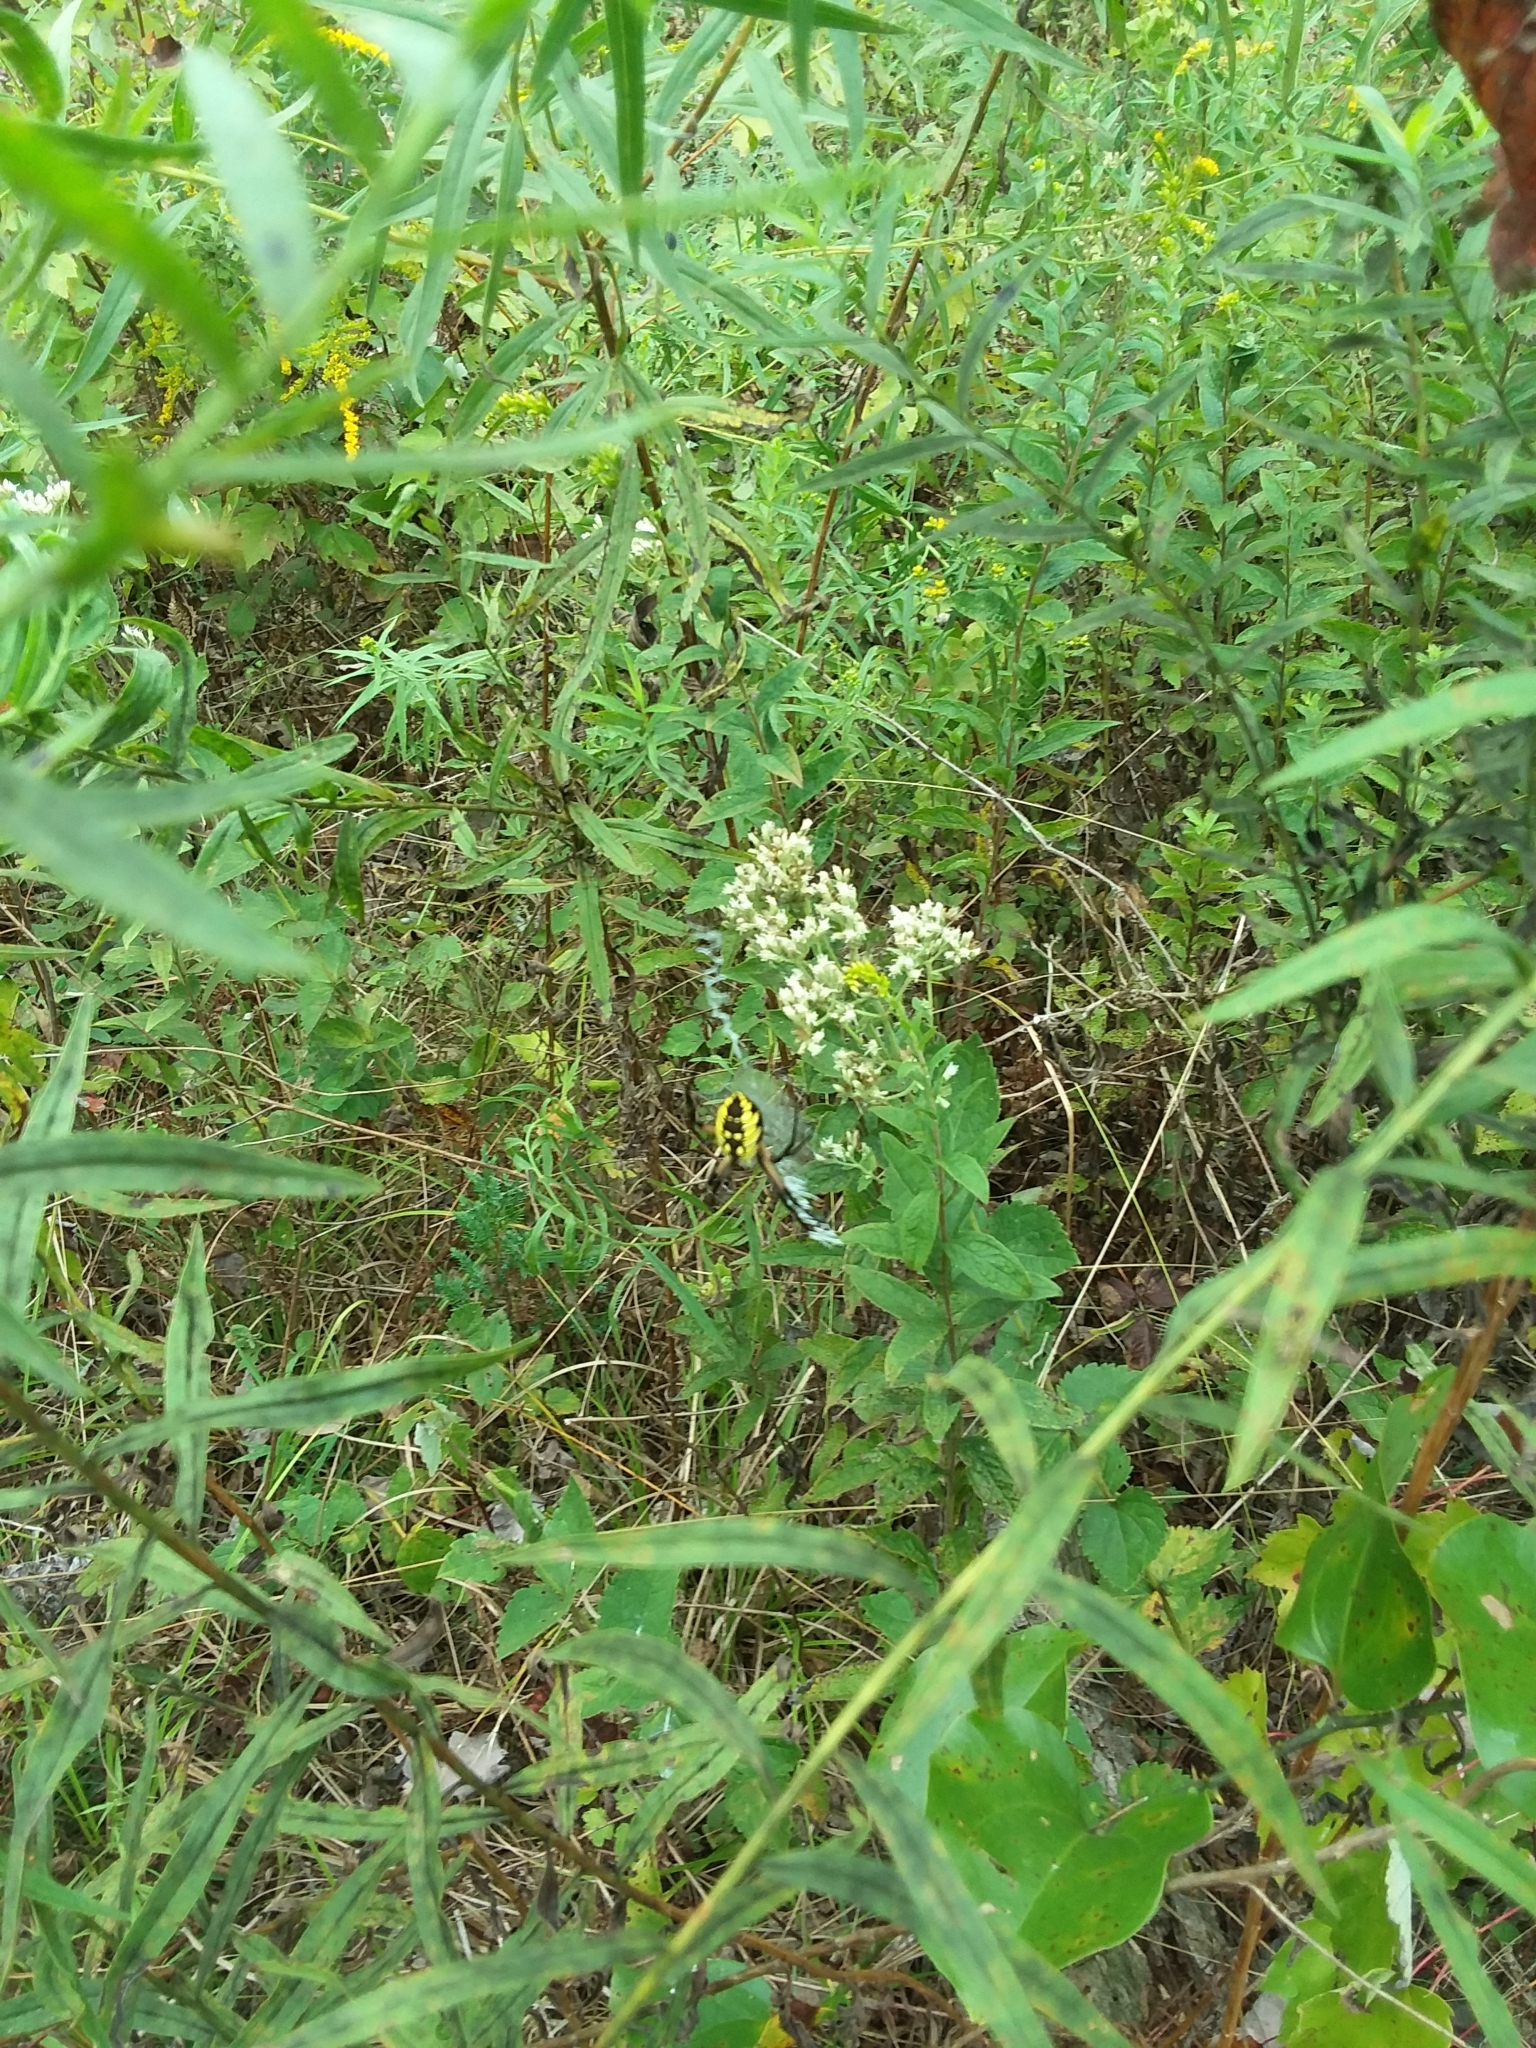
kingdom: Animalia
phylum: Arthropoda
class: Arachnida
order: Araneae
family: Araneidae
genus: Argiope
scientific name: Argiope aurantia
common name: Orb weavers
